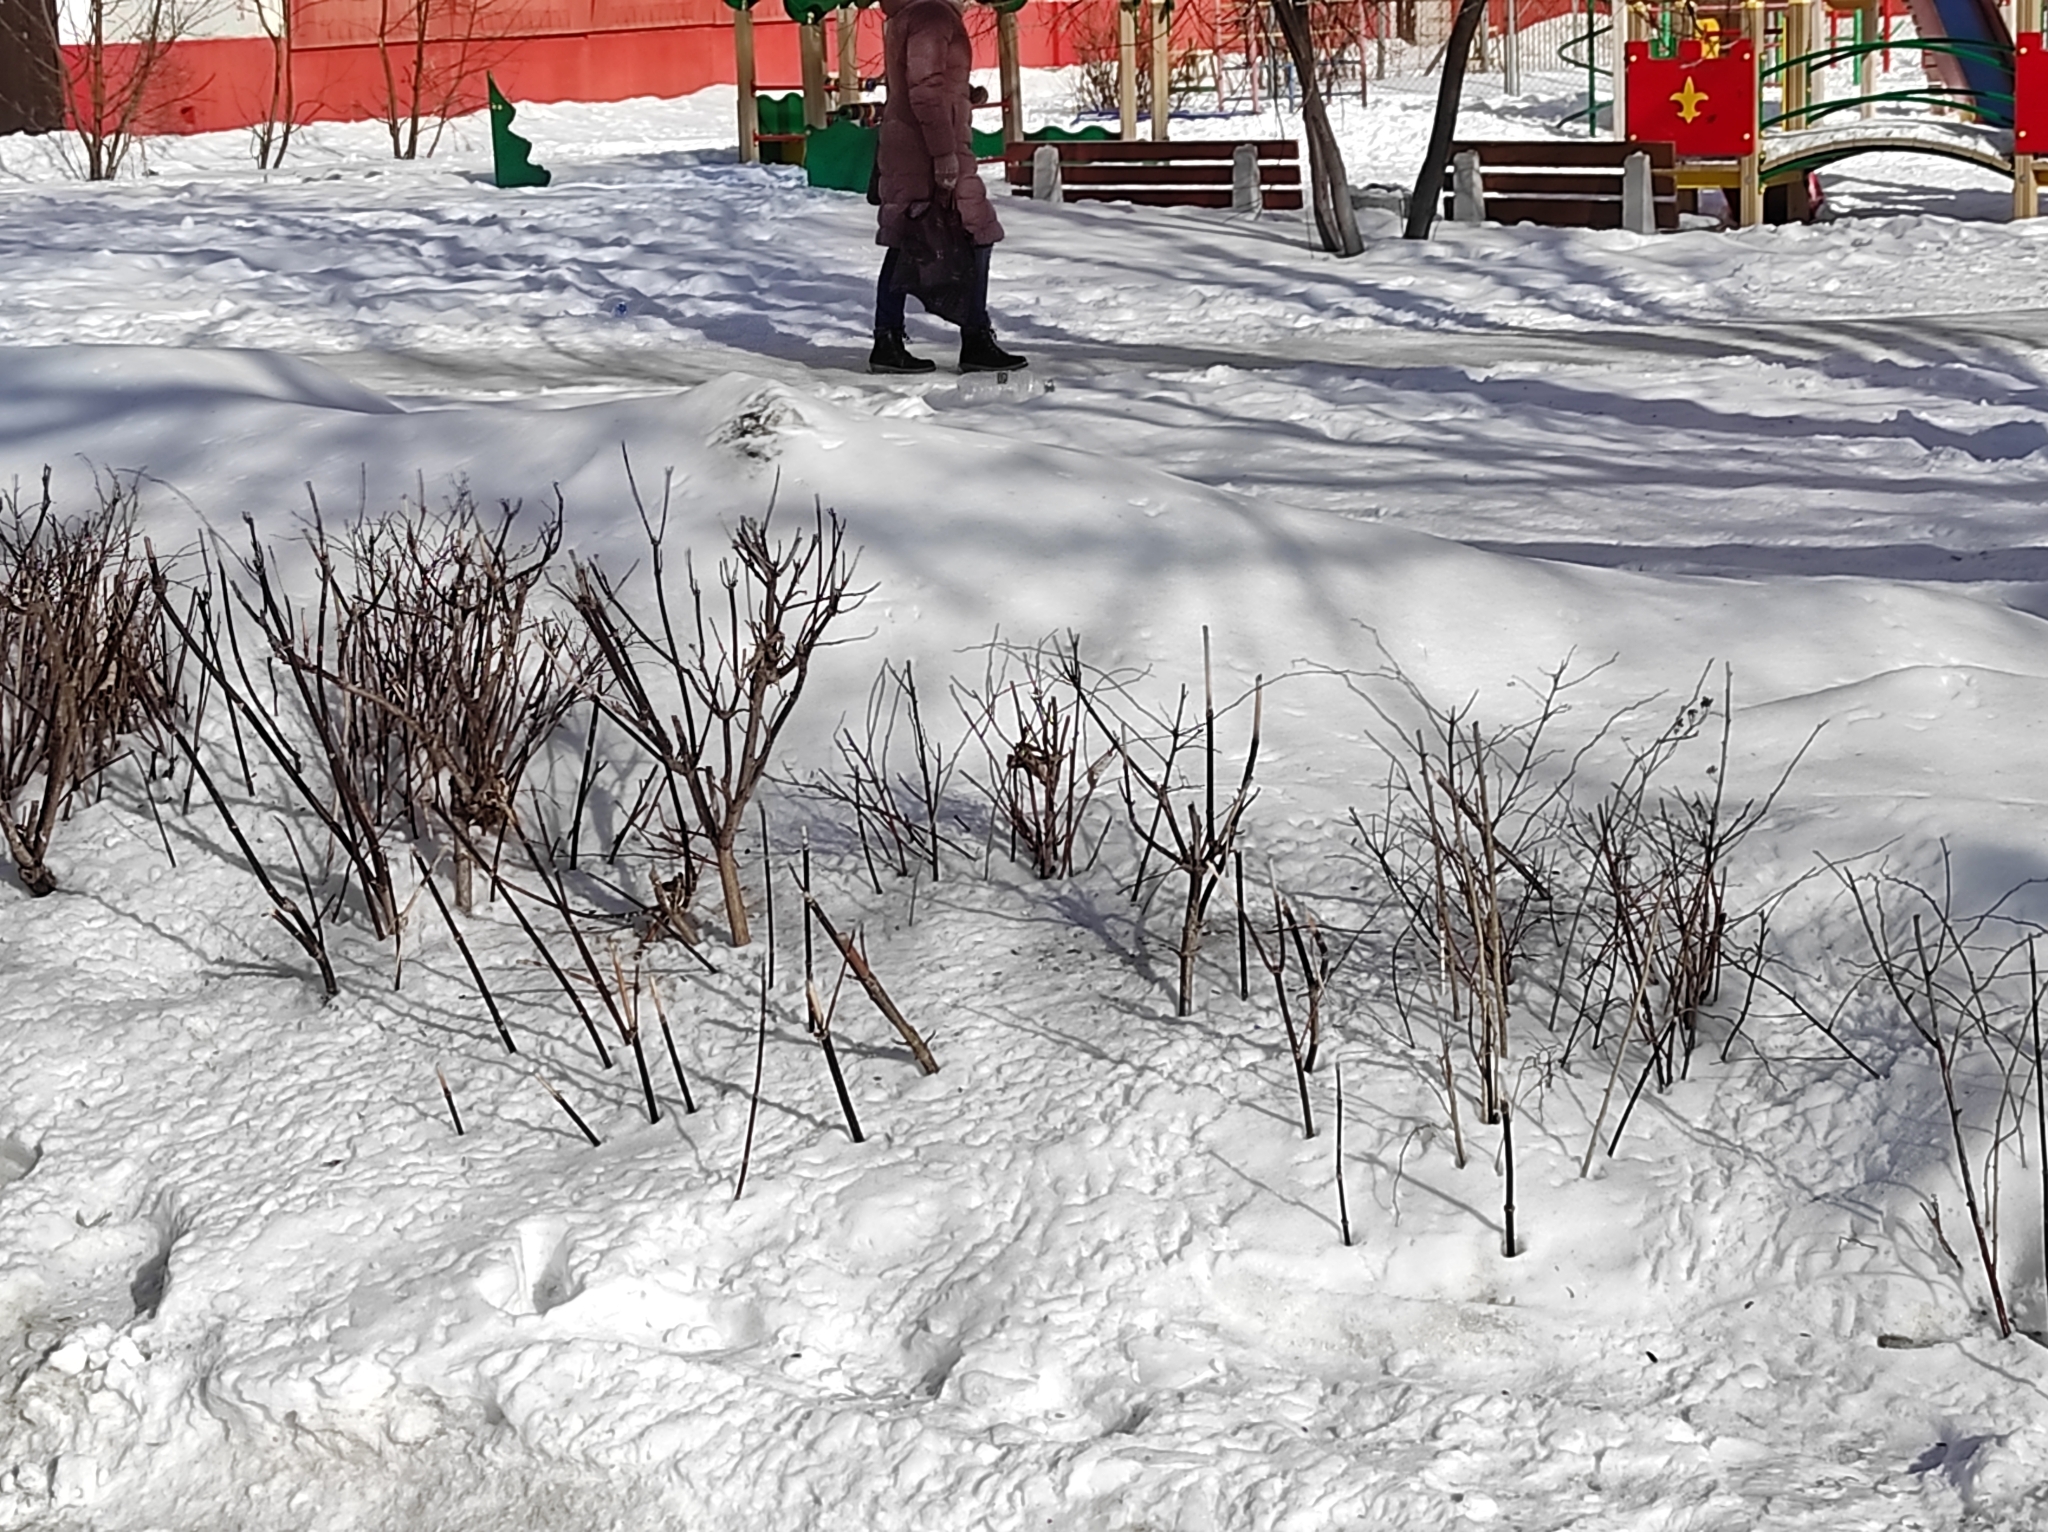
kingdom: Animalia
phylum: Chordata
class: Aves
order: Passeriformes
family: Passeridae
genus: Passer
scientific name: Passer domesticus
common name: House sparrow
